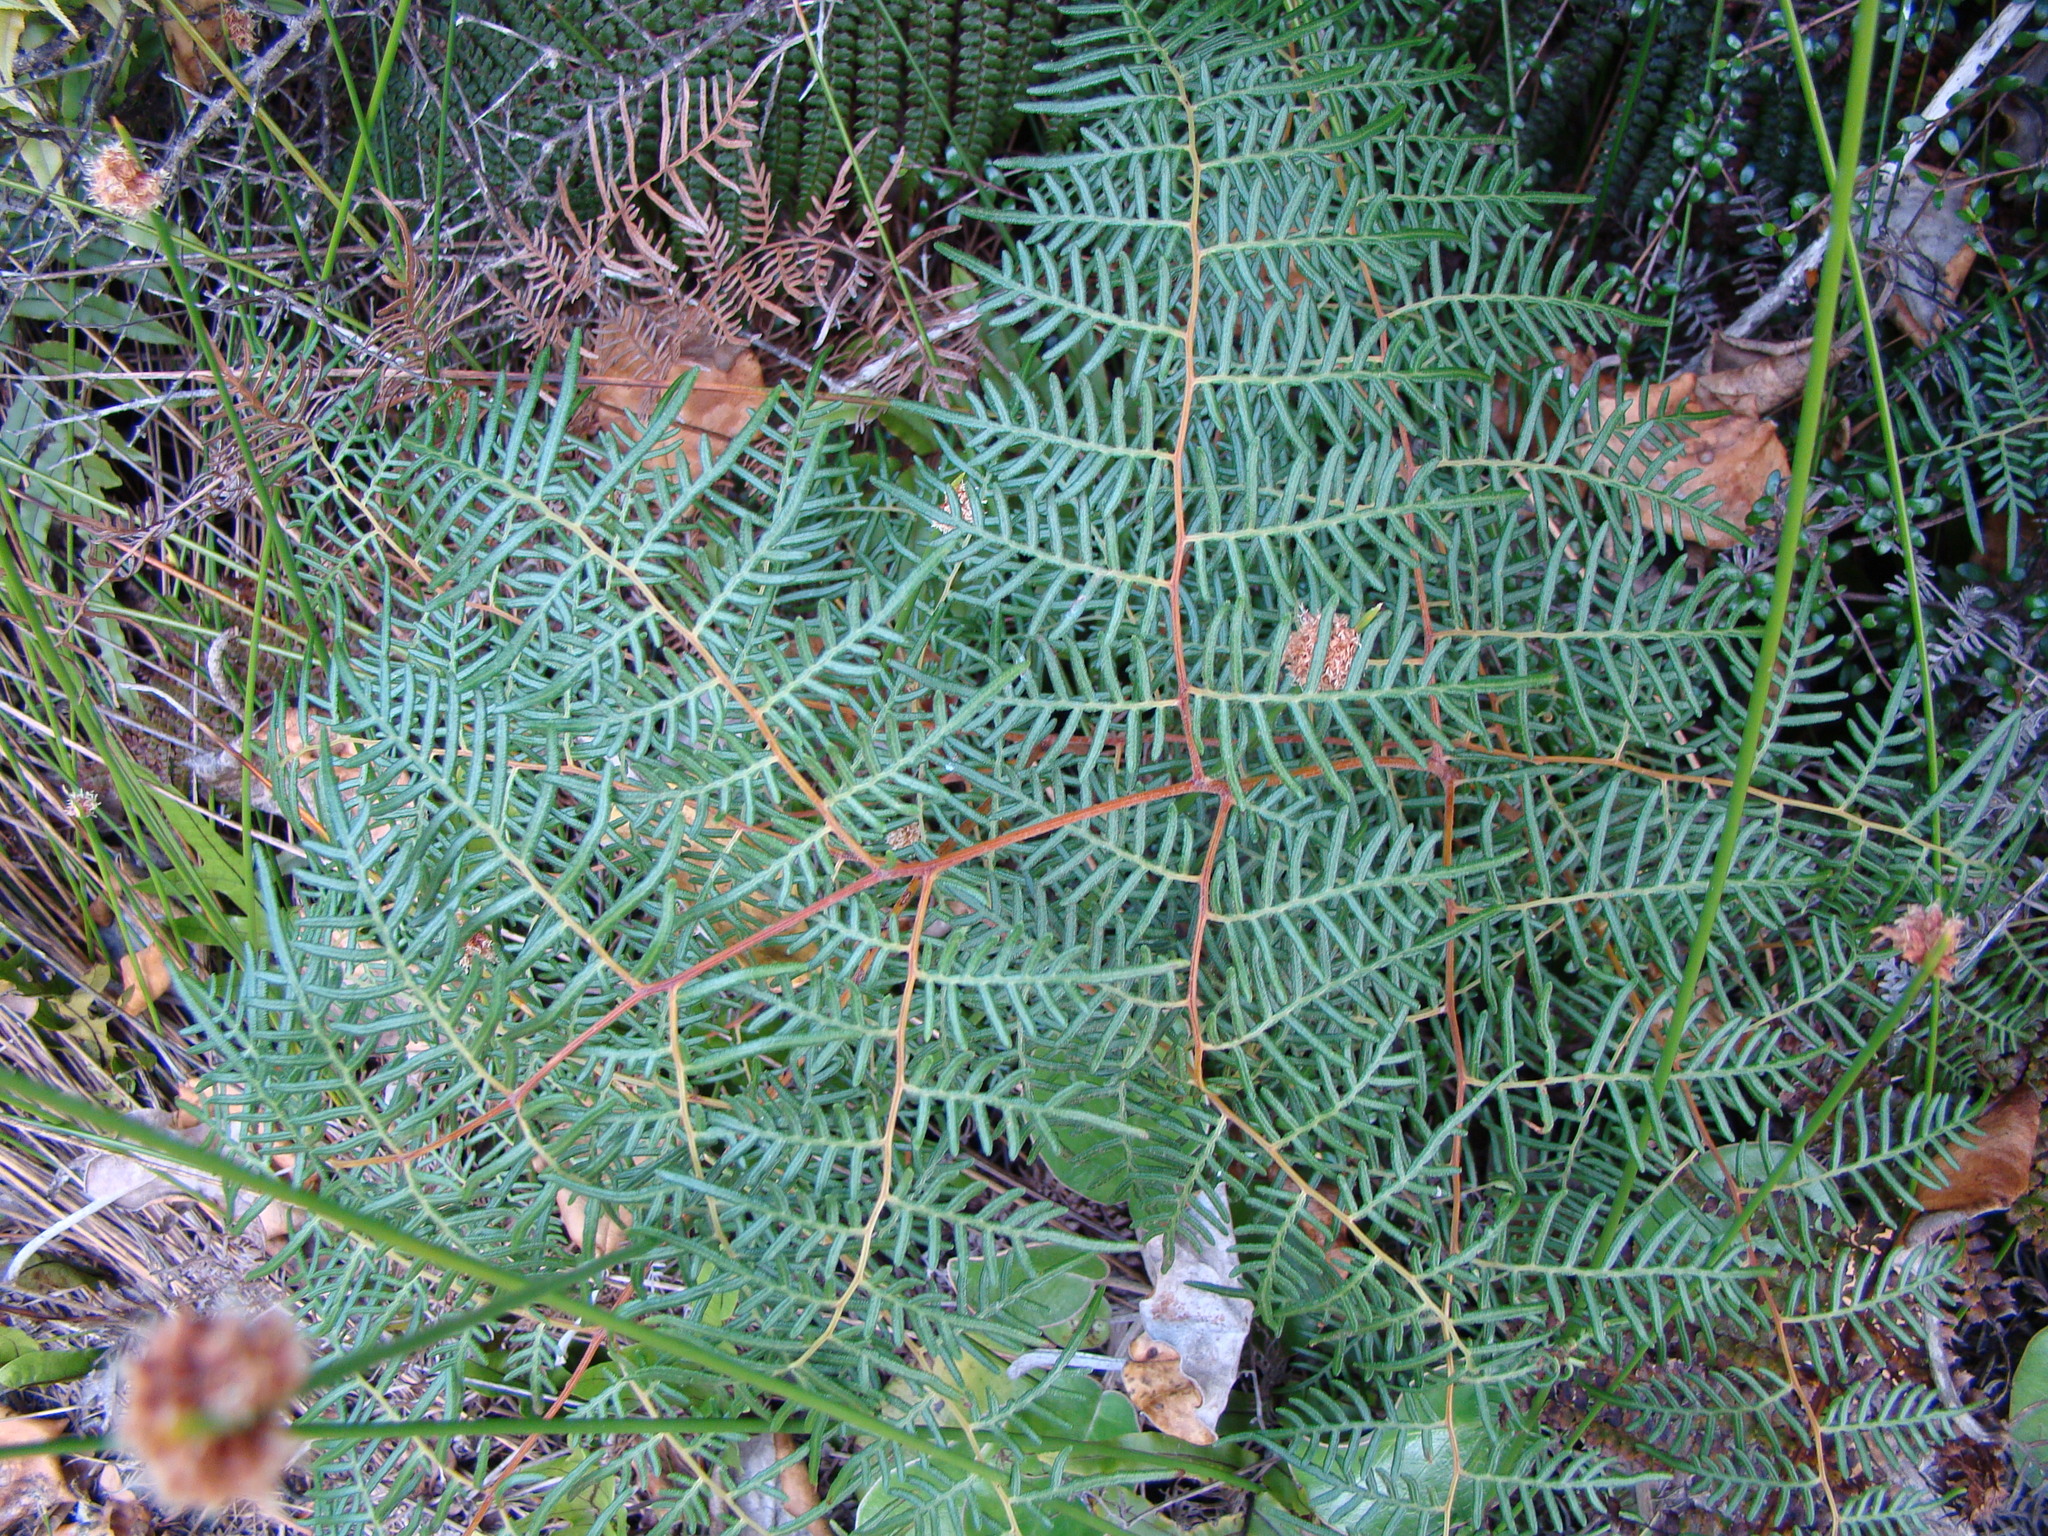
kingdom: Plantae
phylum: Tracheophyta
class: Polypodiopsida
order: Polypodiales
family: Dennstaedtiaceae
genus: Pteridium
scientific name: Pteridium esculentum
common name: Bracken fern
